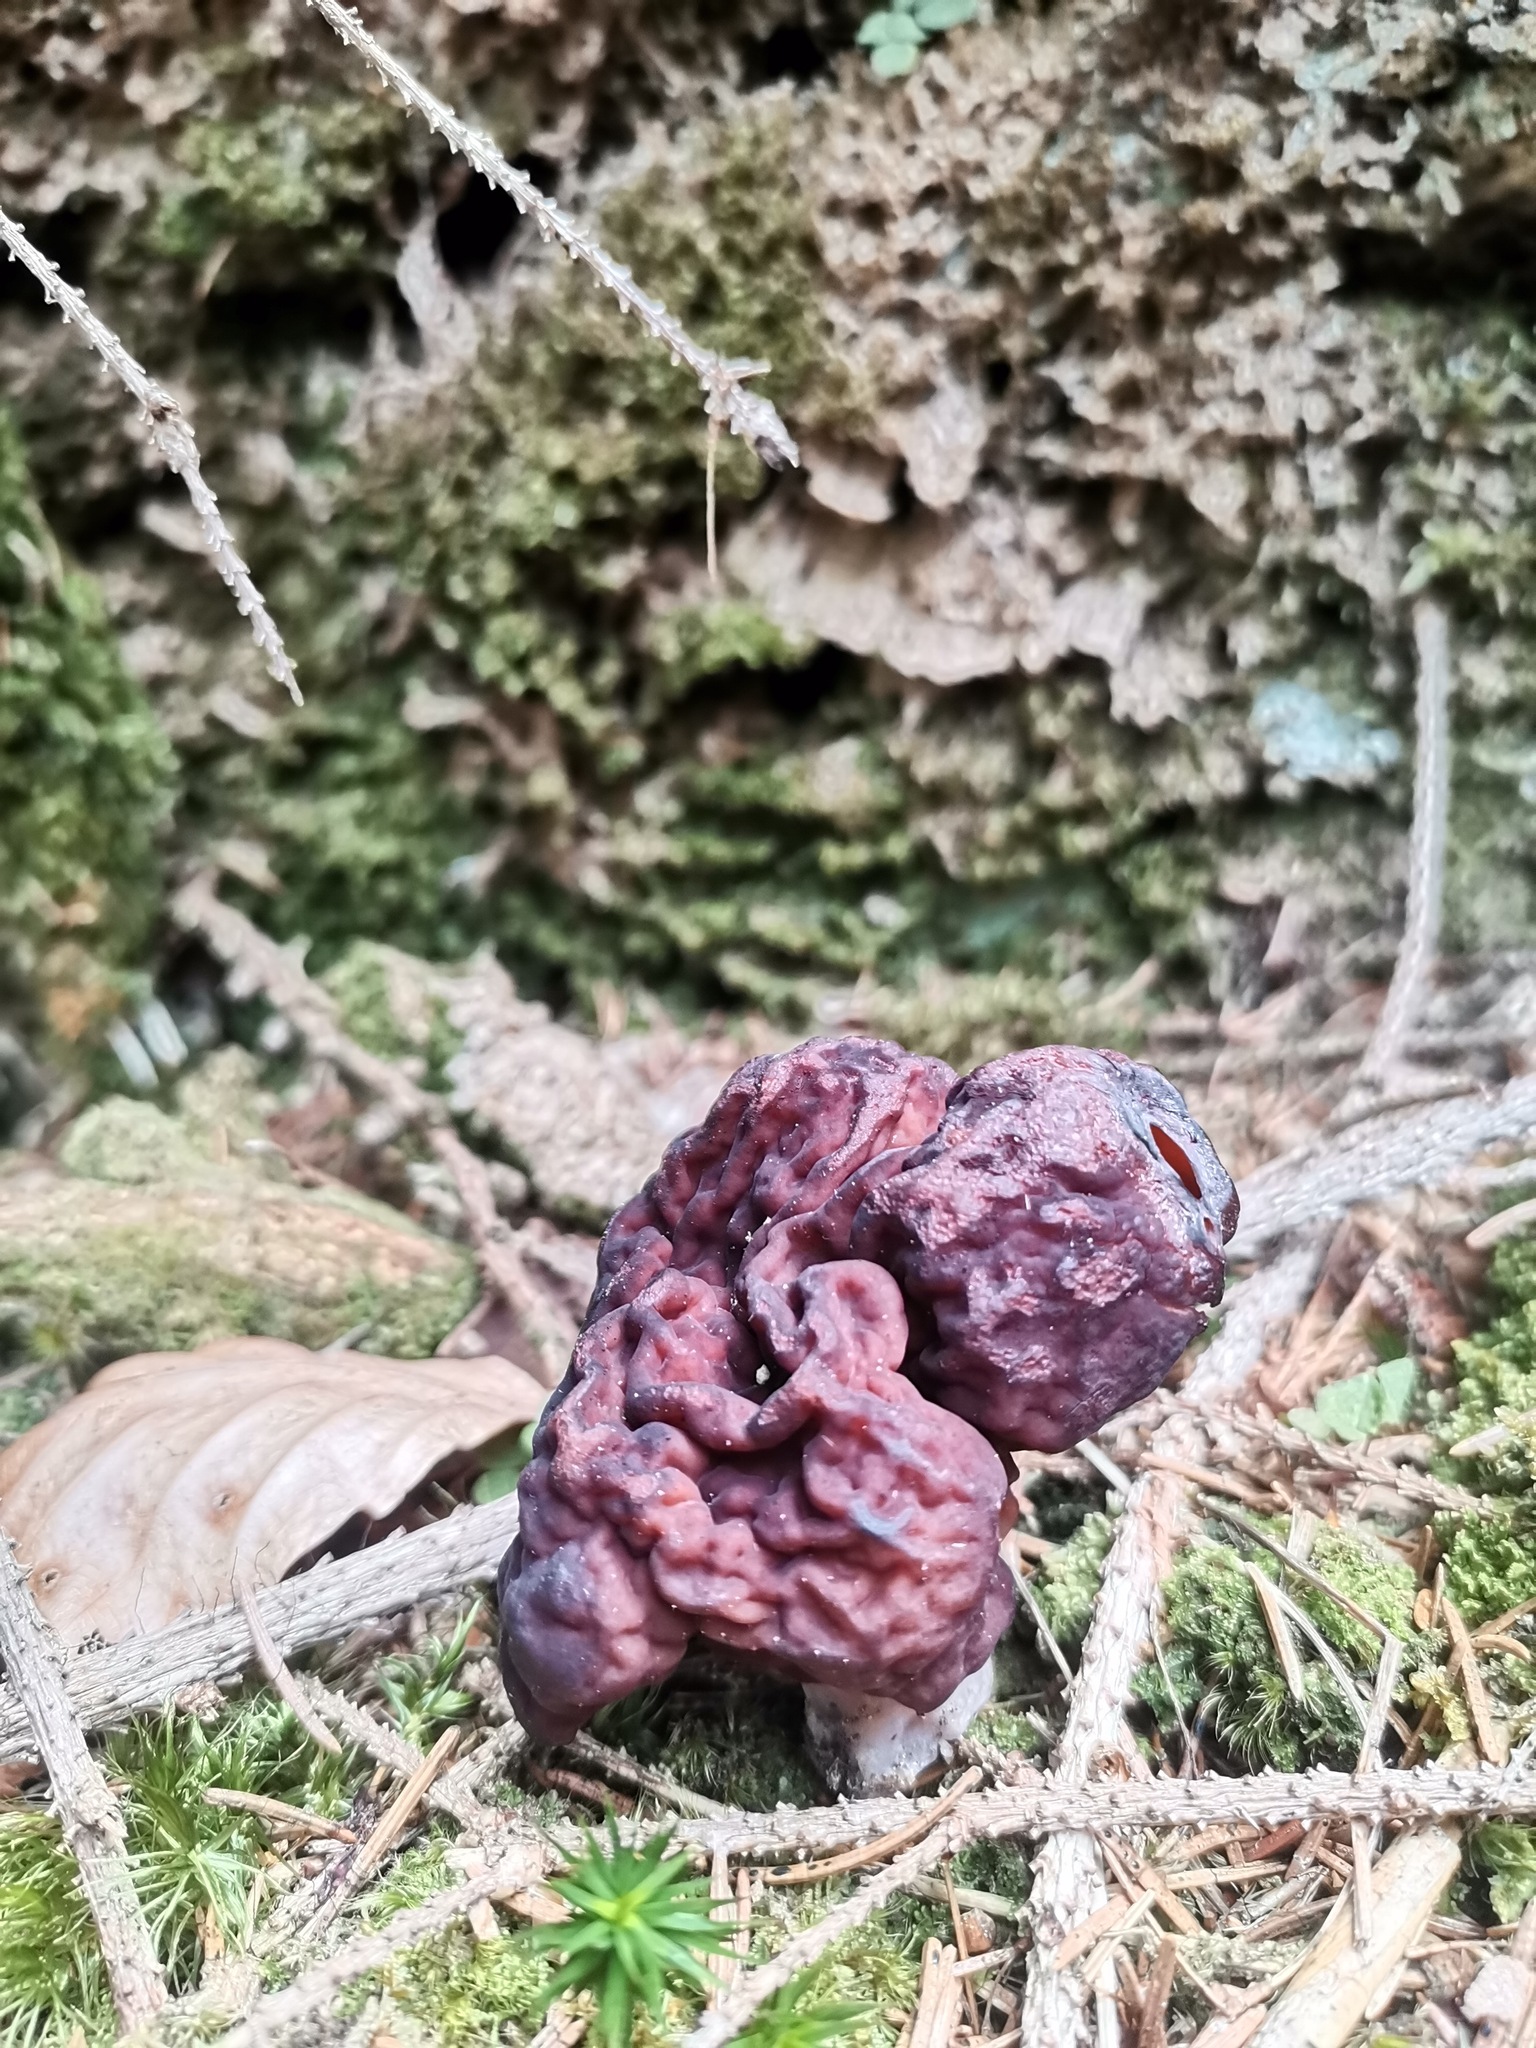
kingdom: Fungi
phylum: Ascomycota
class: Pezizomycetes
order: Pezizales
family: Discinaceae
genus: Gyromitra
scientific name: Gyromitra esculenta
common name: False morel
